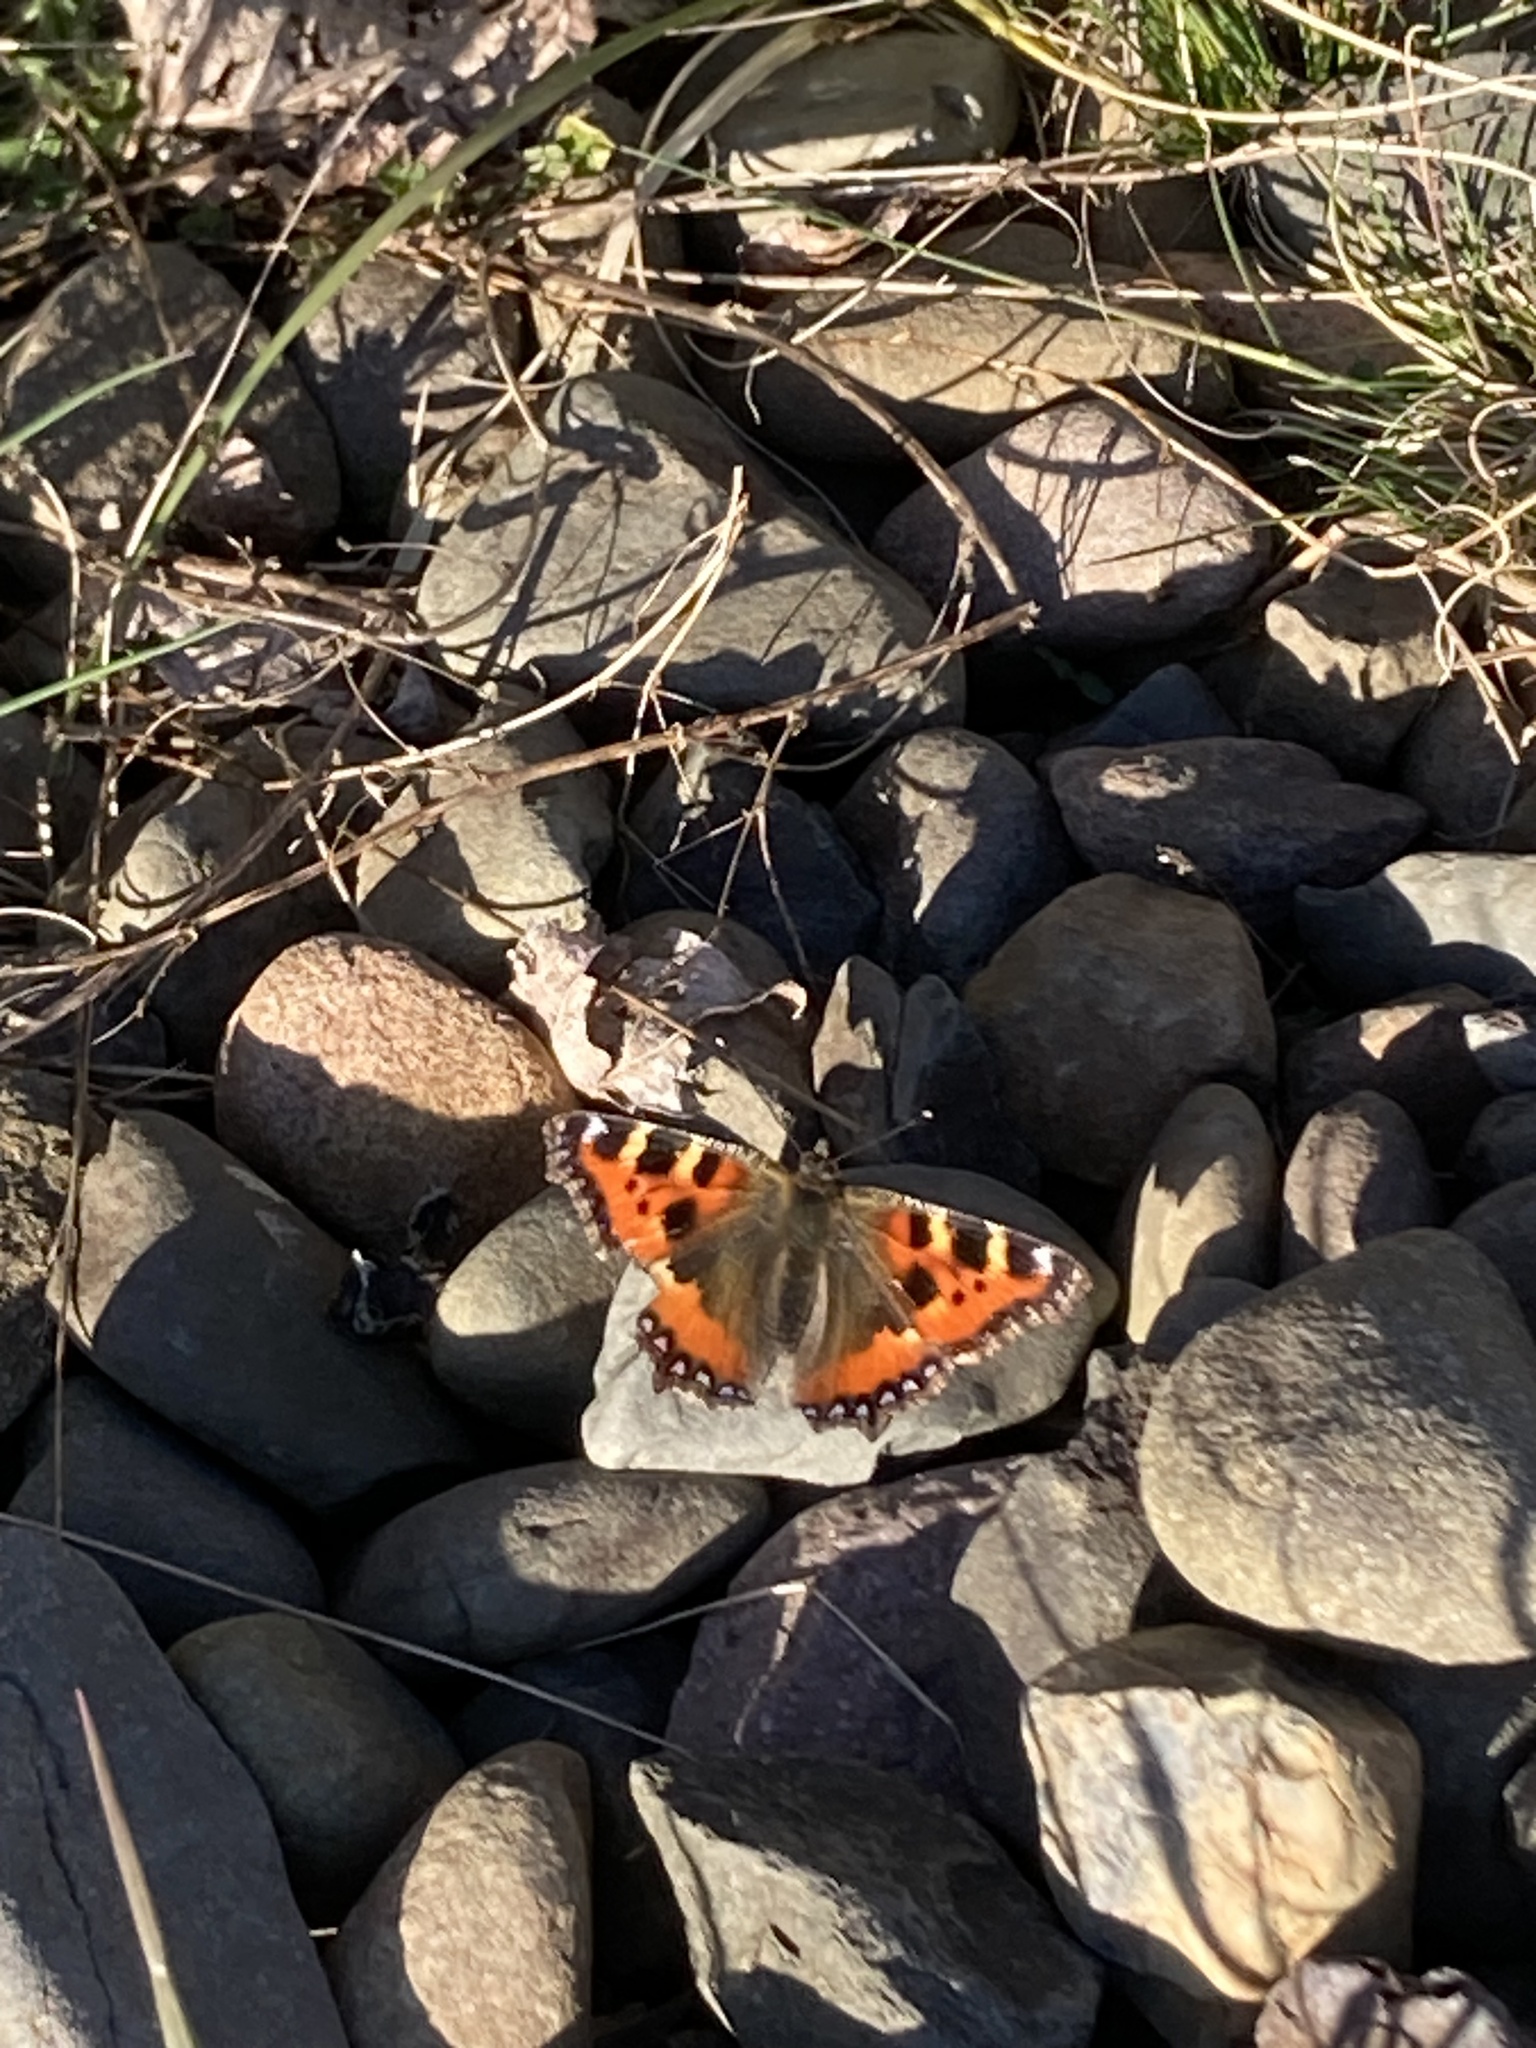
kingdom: Animalia
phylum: Arthropoda
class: Insecta
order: Lepidoptera
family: Nymphalidae
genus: Aglais
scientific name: Aglais urticae
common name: Small tortoiseshell
